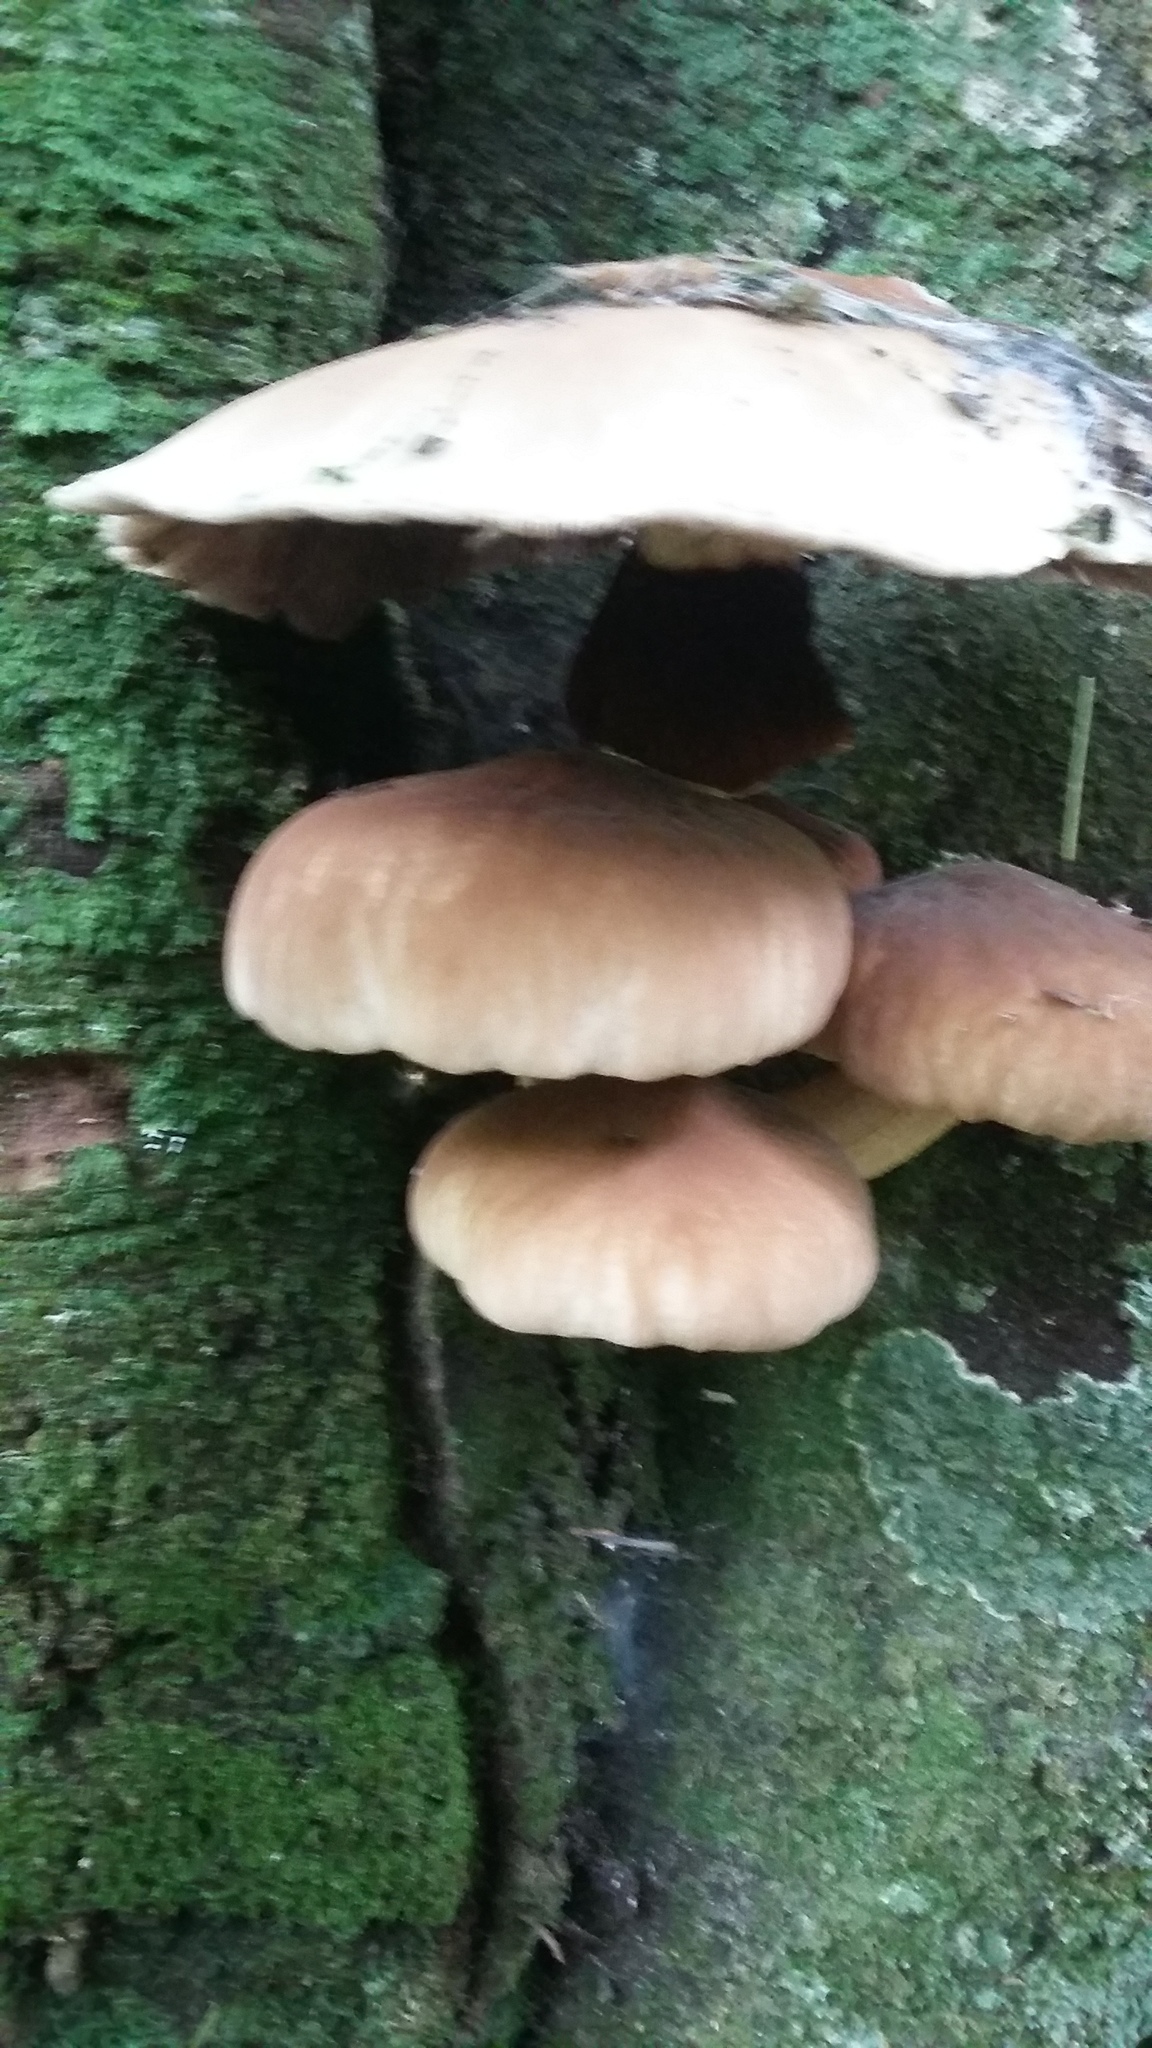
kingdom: Fungi
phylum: Basidiomycota
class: Agaricomycetes
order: Agaricales
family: Tubariaceae
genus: Cyclocybe
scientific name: Cyclocybe parasitica
